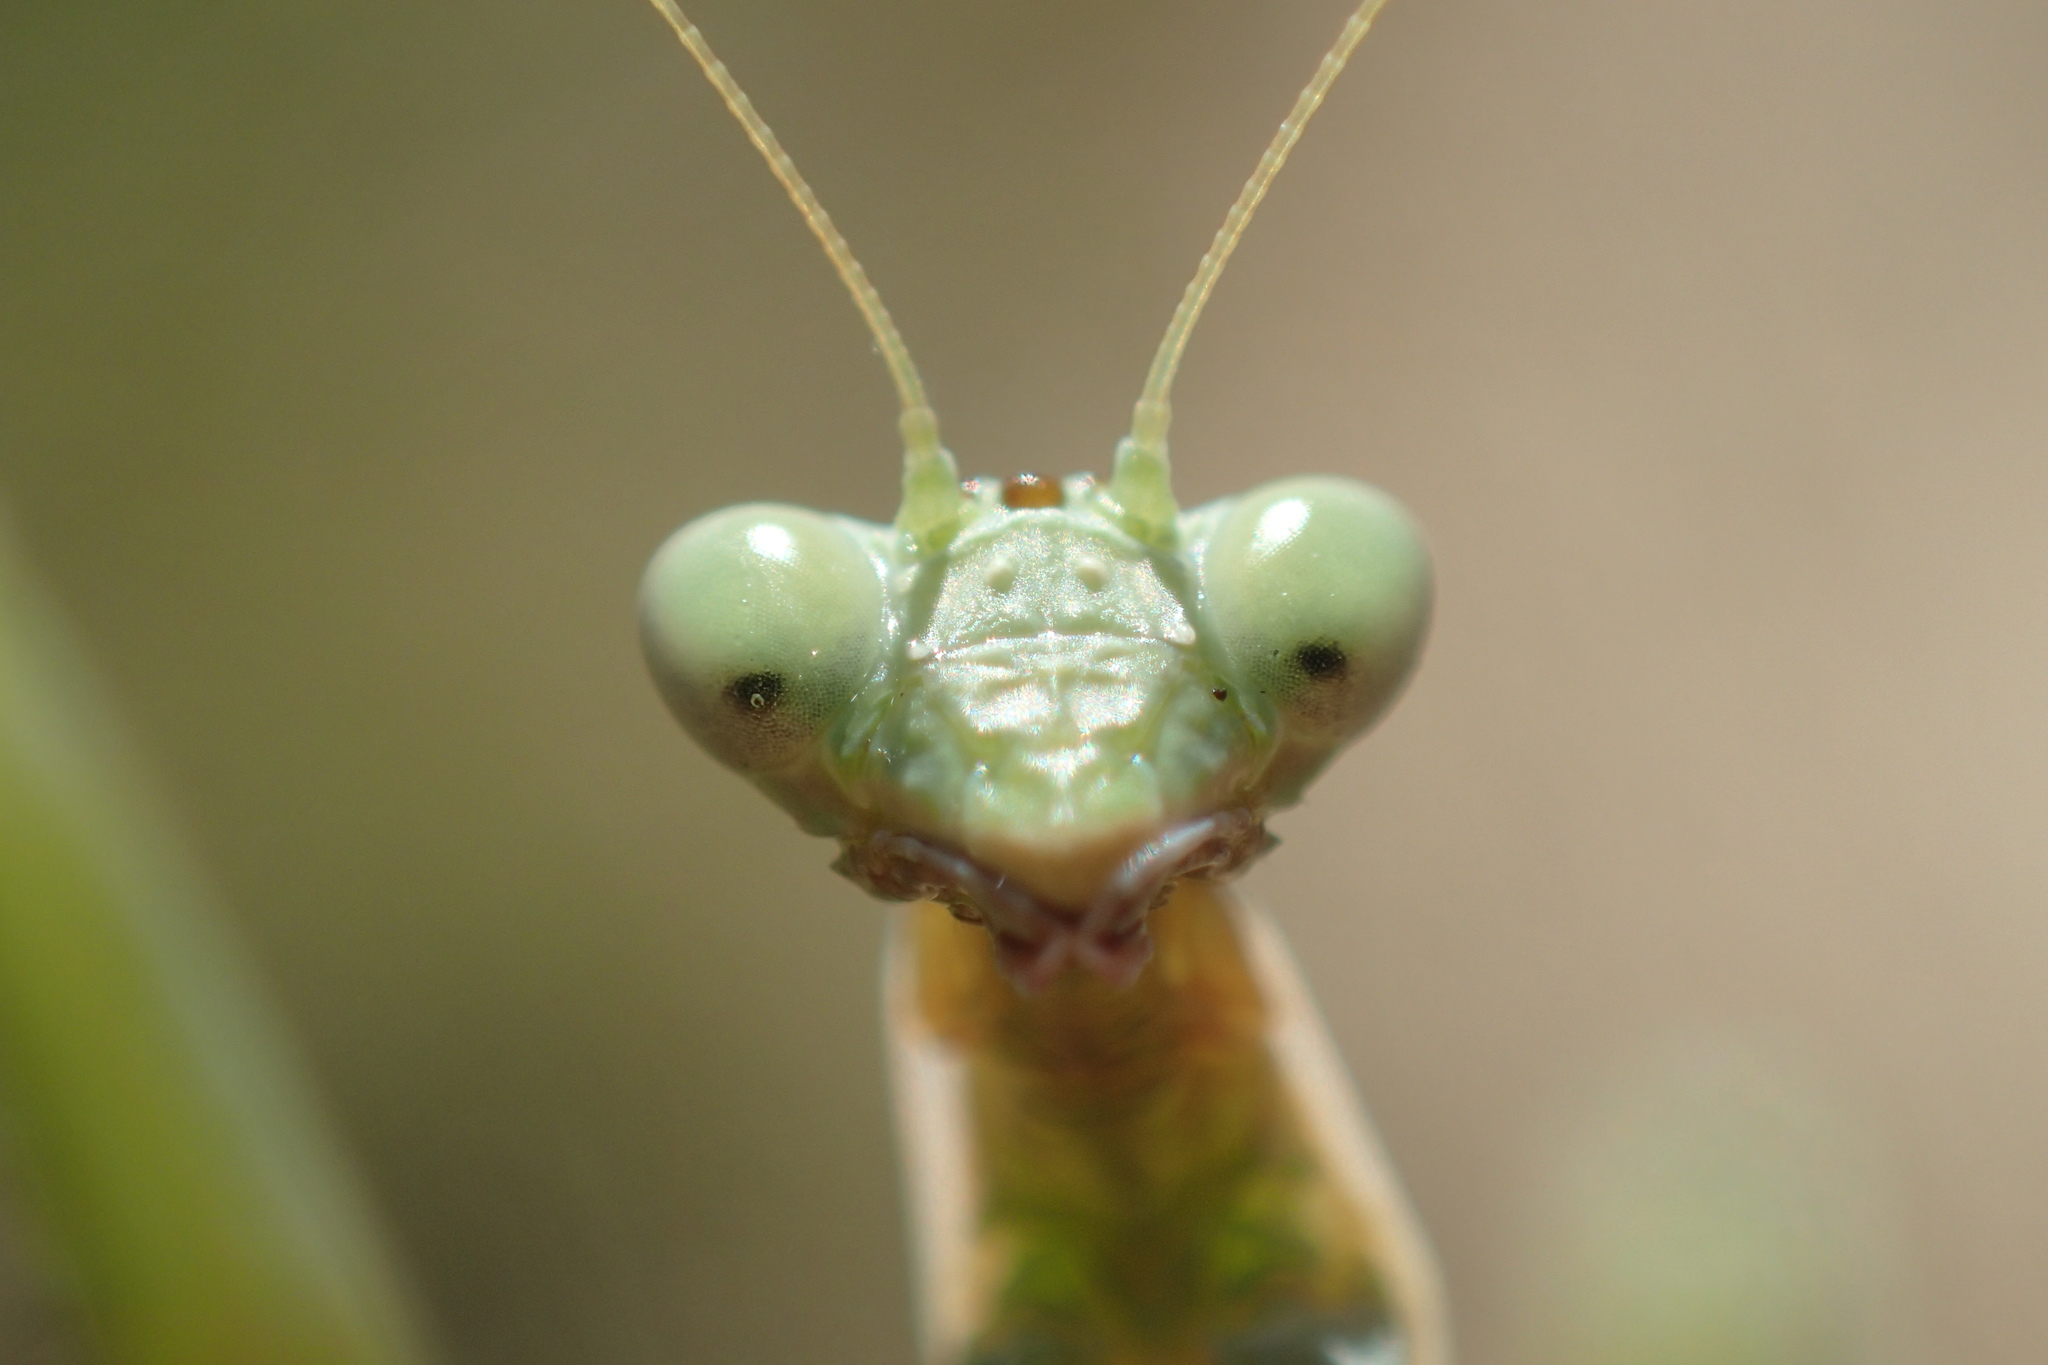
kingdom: Animalia
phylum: Arthropoda
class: Insecta
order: Mantodea
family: Eremiaphilidae
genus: Iris
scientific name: Iris polystictica
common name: Dot-winged mantis
